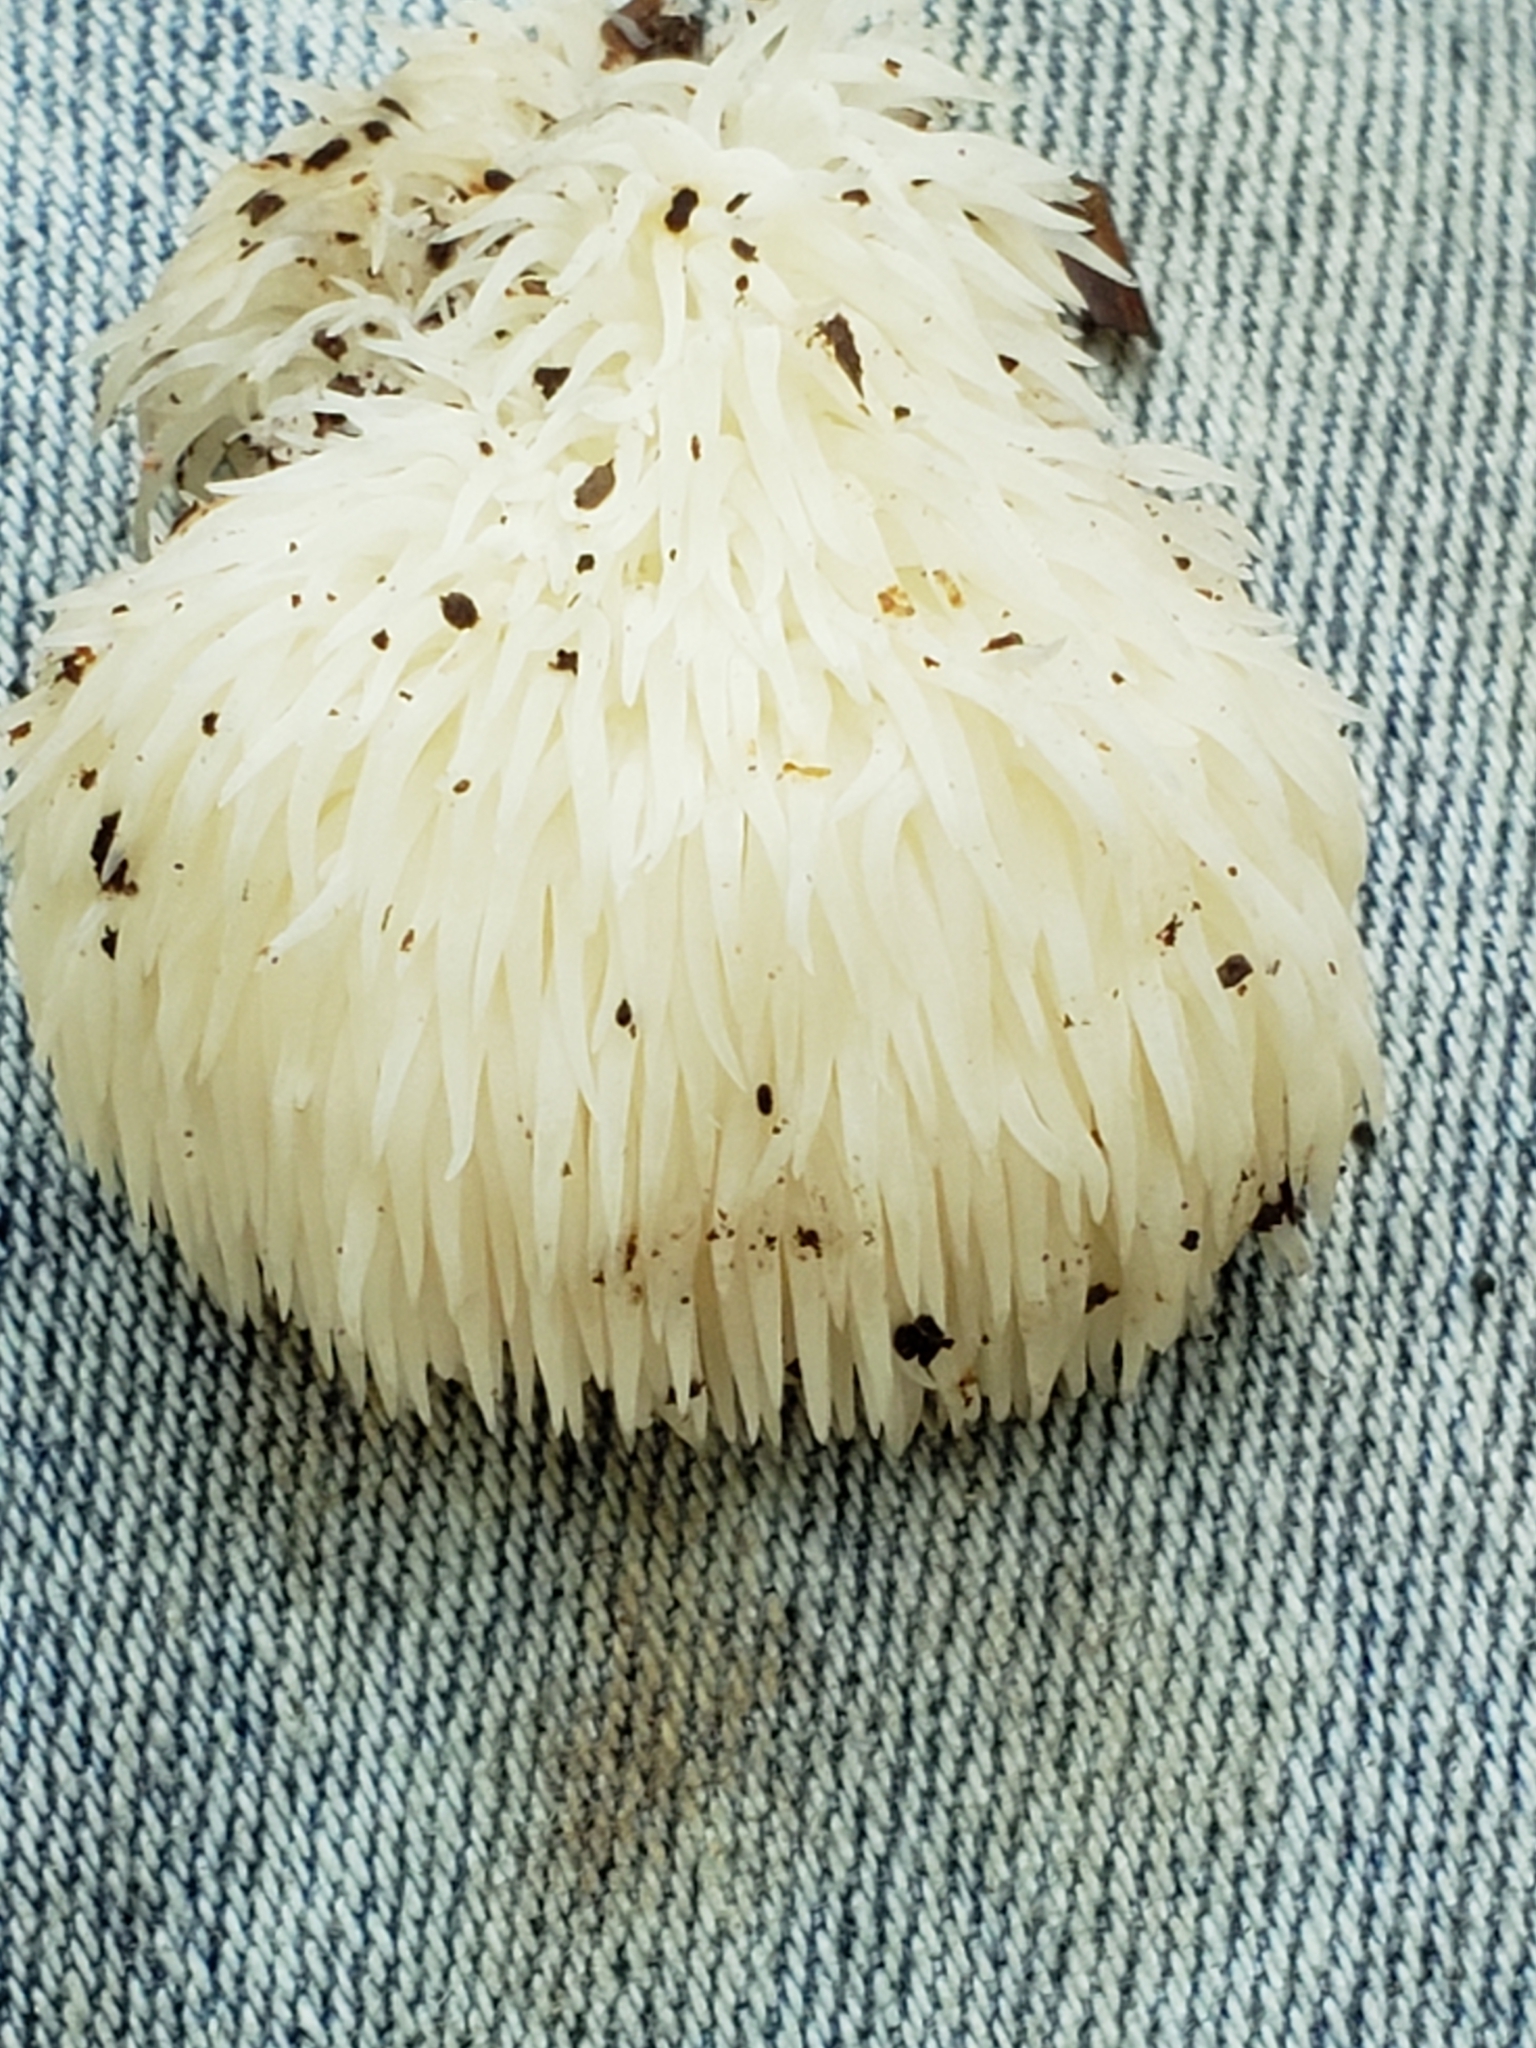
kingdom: Fungi
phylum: Basidiomycota
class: Agaricomycetes
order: Russulales
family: Hericiaceae
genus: Hericium
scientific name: Hericium erinaceus
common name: Bearded tooth
